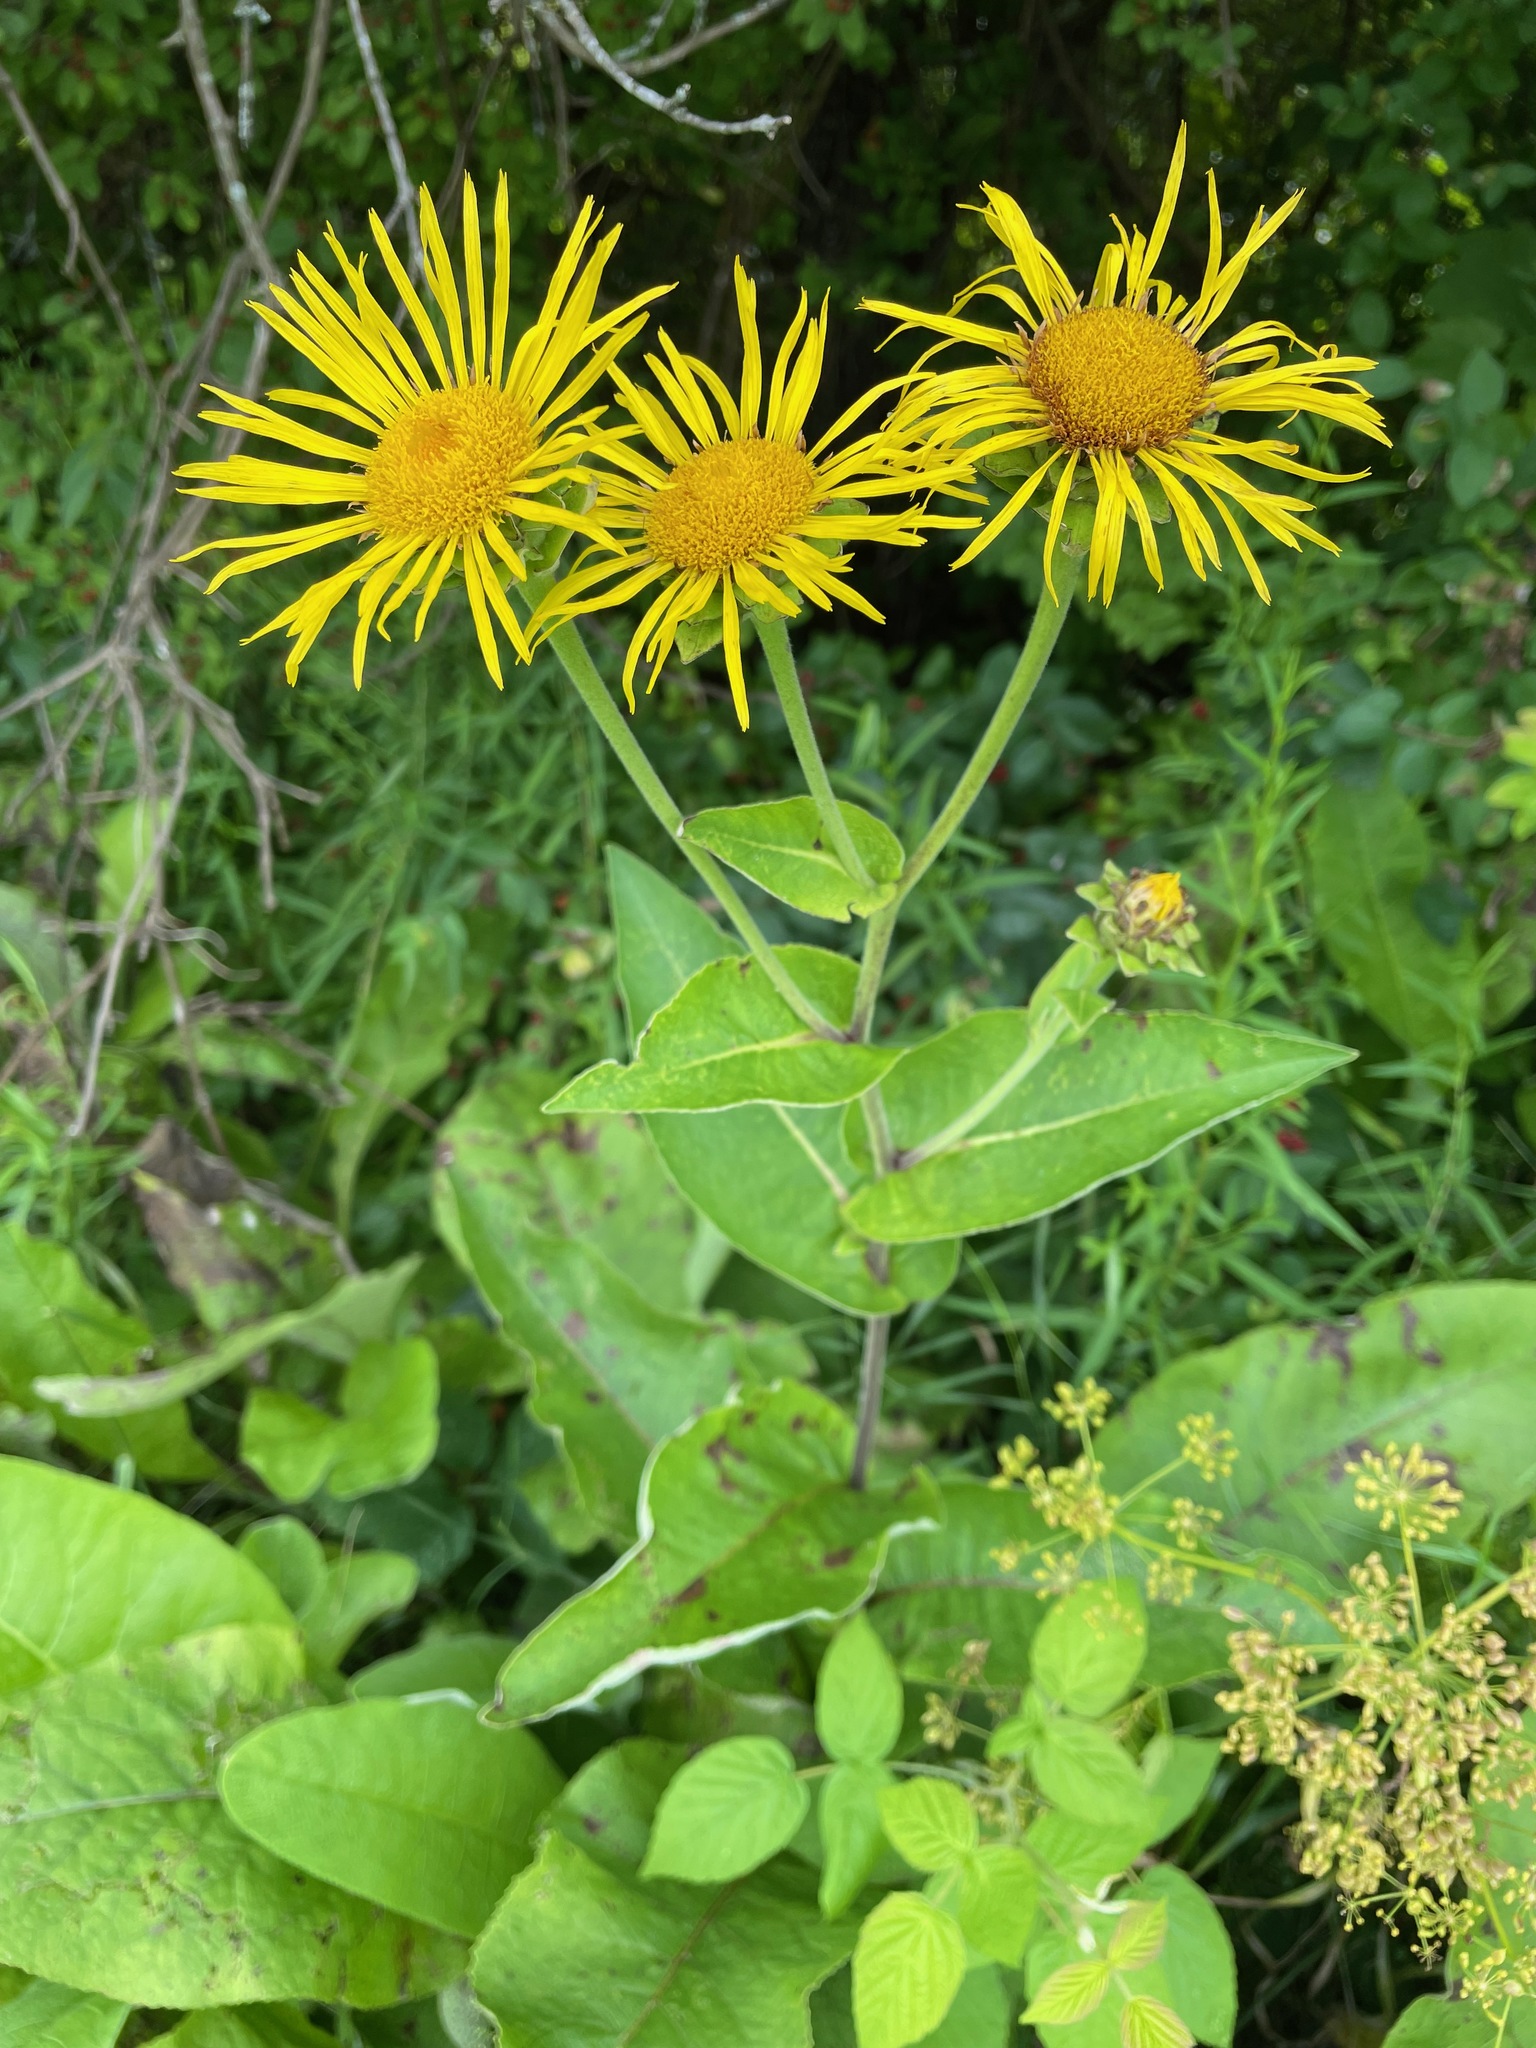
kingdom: Plantae
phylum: Tracheophyta
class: Magnoliopsida
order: Asterales
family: Asteraceae
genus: Inula
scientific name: Inula helenium
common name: Elecampane
